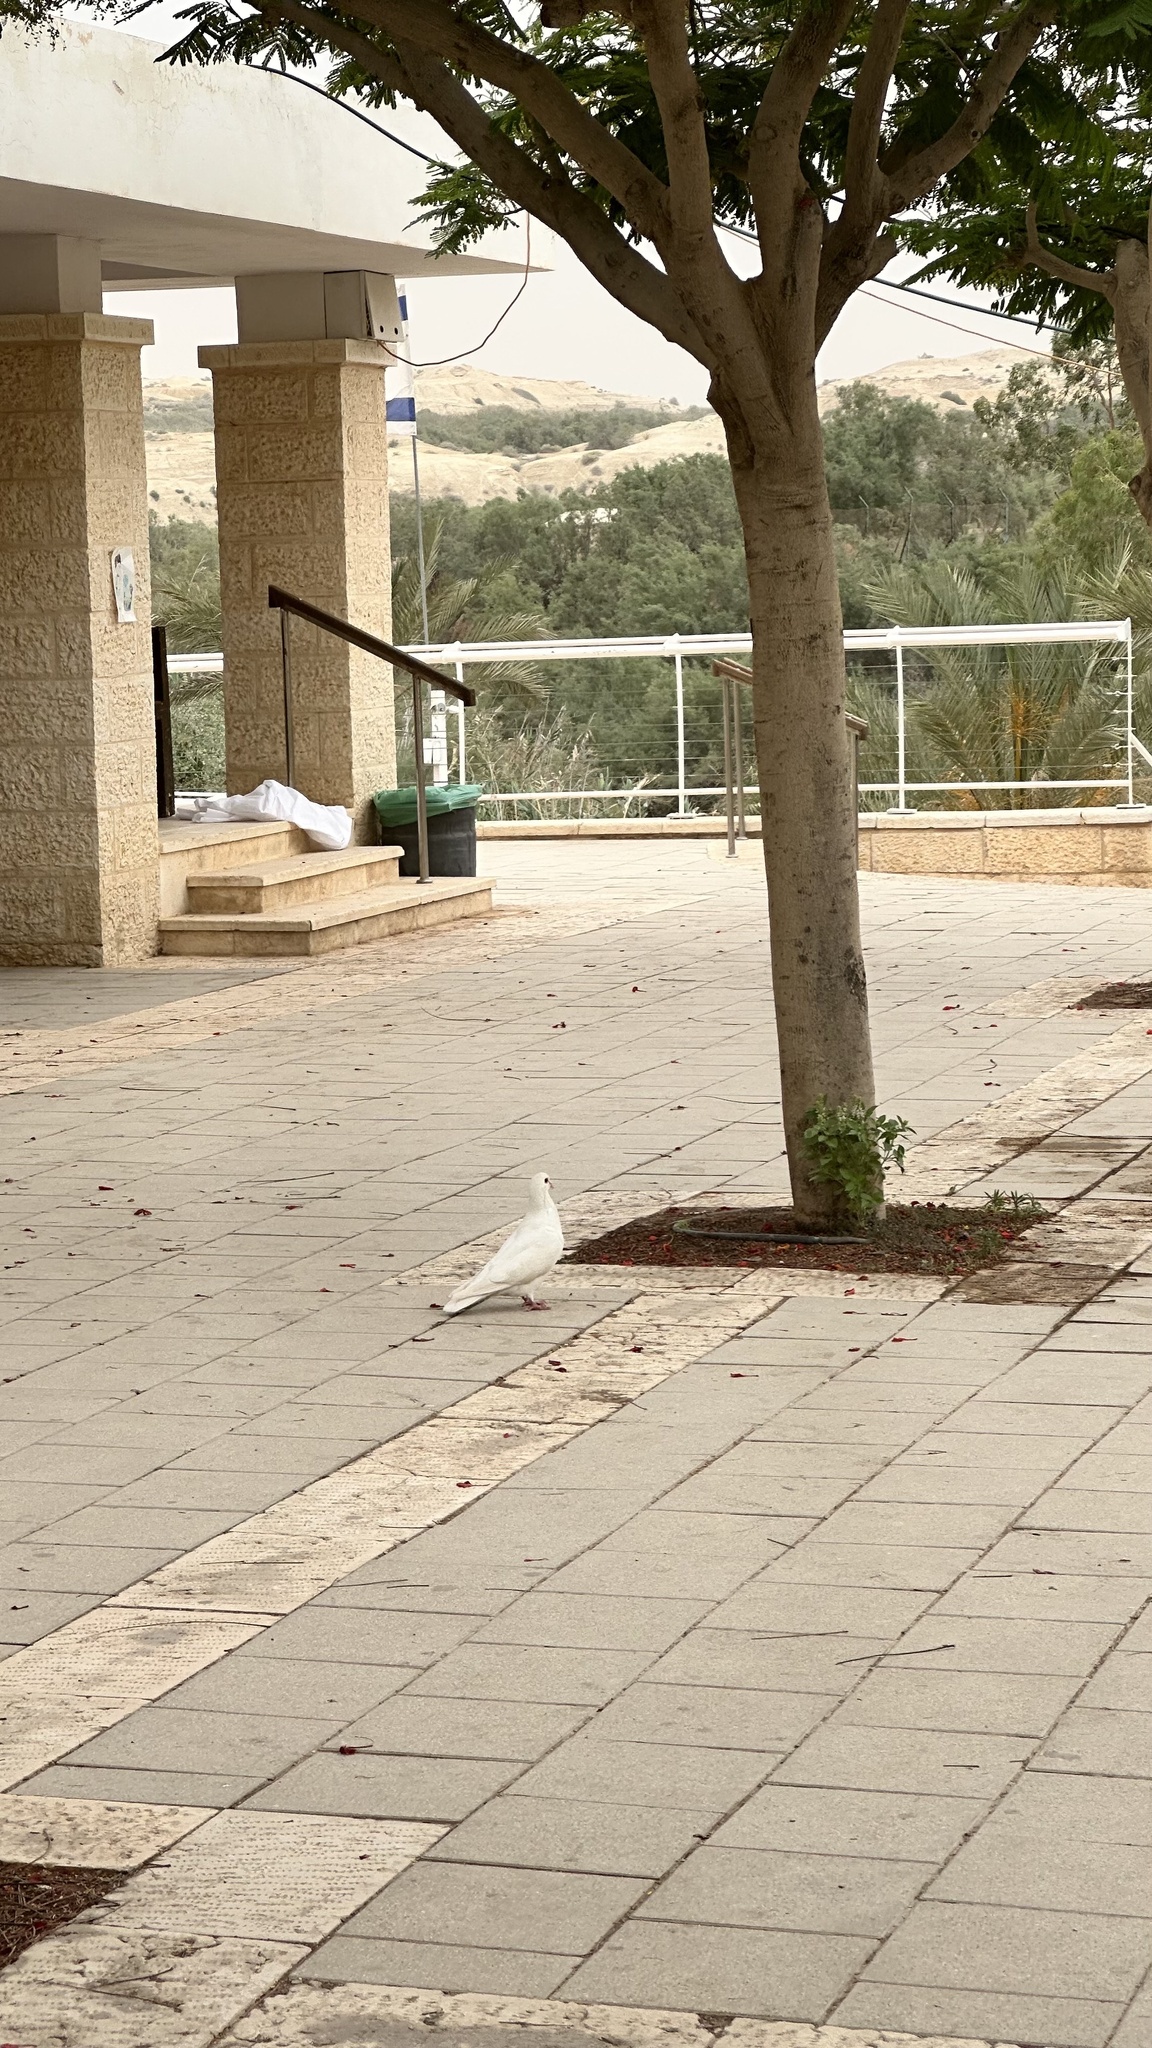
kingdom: Animalia
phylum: Chordata
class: Aves
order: Columbiformes
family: Columbidae
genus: Columba
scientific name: Columba livia
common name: Rock pigeon
